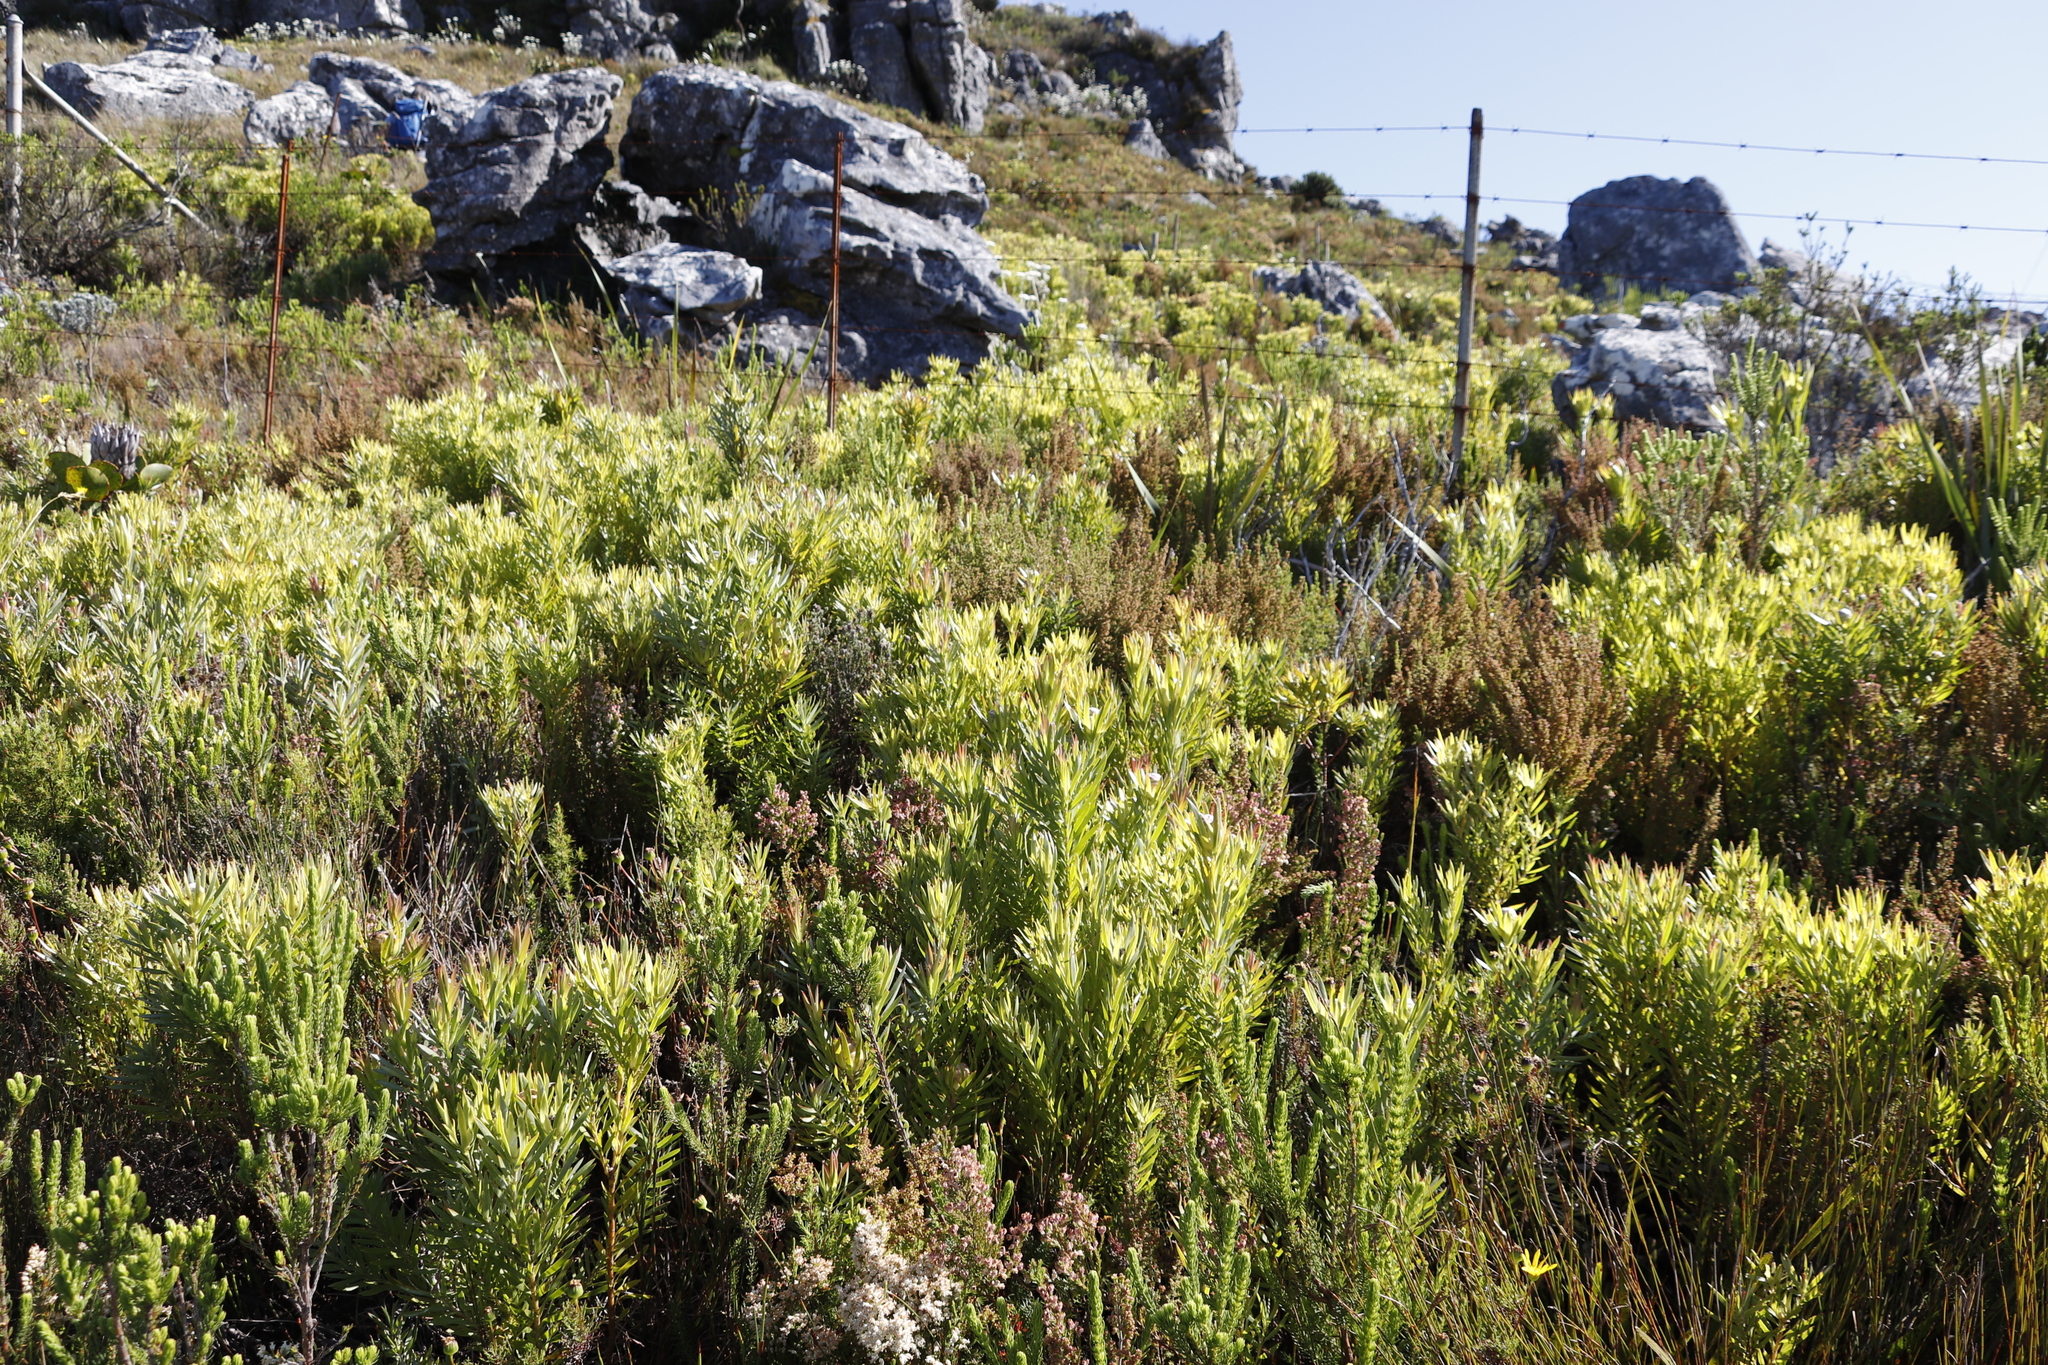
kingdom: Plantae
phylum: Tracheophyta
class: Magnoliopsida
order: Proteales
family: Proteaceae
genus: Leucadendron
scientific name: Leucadendron xanthoconus
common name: Sickle-leaf conebush
